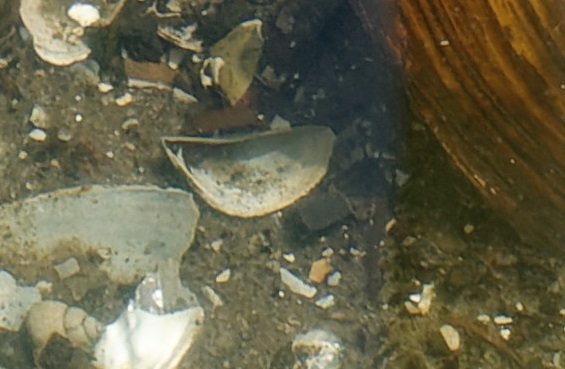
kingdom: Animalia
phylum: Mollusca
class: Bivalvia
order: Myida
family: Dreissenidae
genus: Dreissena
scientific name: Dreissena polymorpha
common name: Zebra mussel
